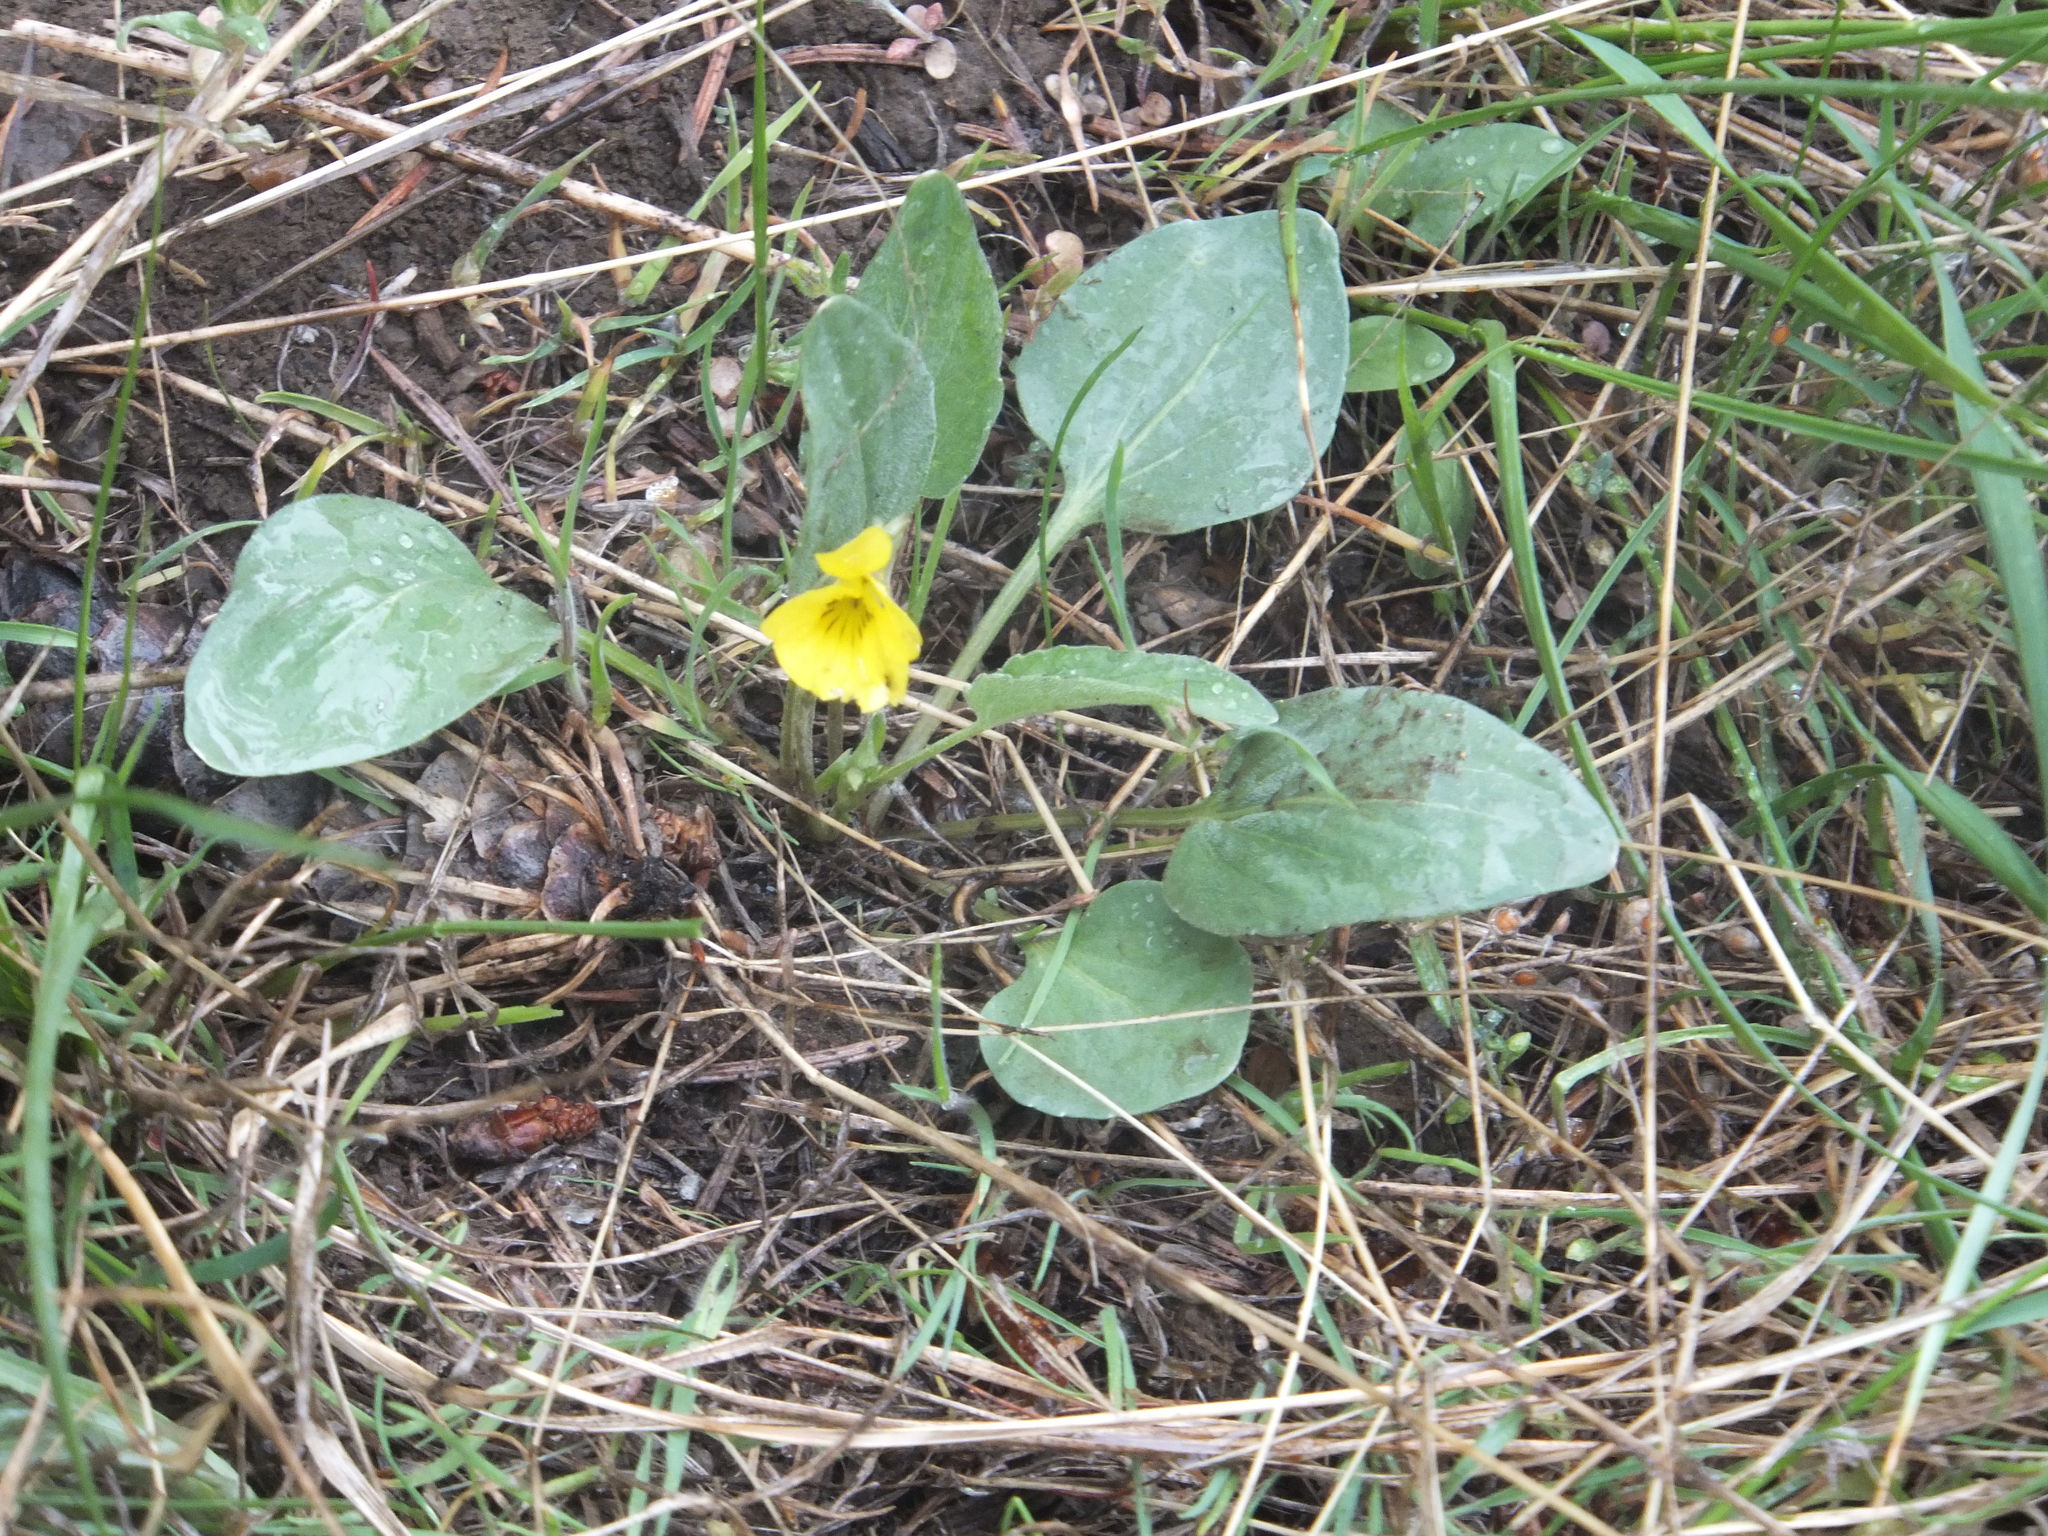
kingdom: Plantae
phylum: Tracheophyta
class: Magnoliopsida
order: Malpighiales
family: Violaceae
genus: Viola
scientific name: Viola vallicola
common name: Valley violet
